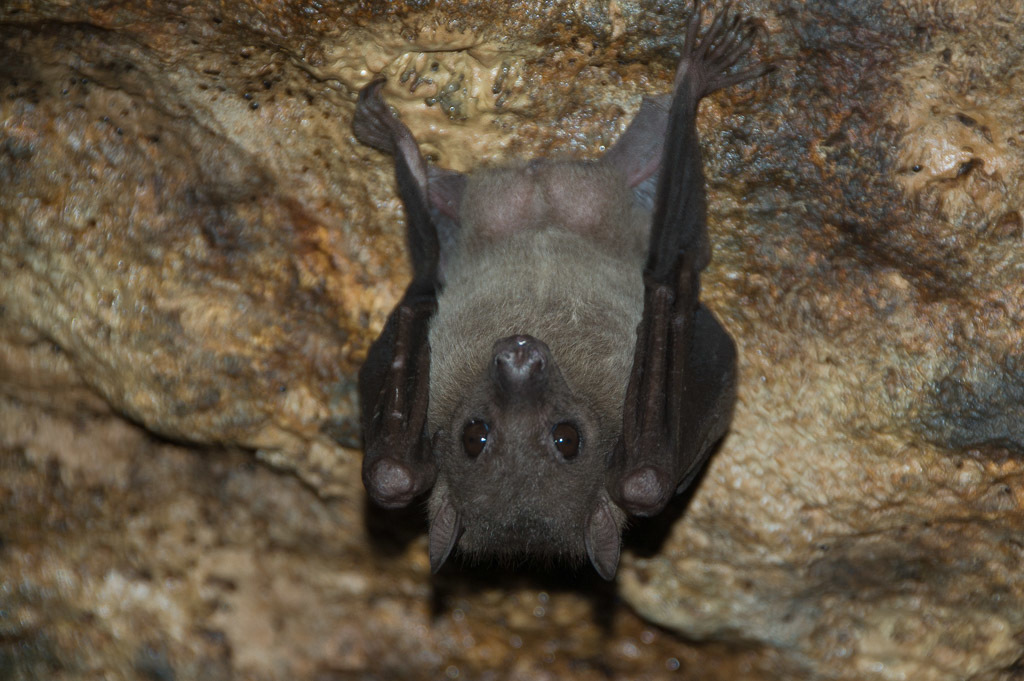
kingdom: Animalia
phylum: Chordata
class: Mammalia
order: Chiroptera
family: Pteropodidae
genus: Rousettus
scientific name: Rousettus aegyptiacus
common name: Egyptian rousette
